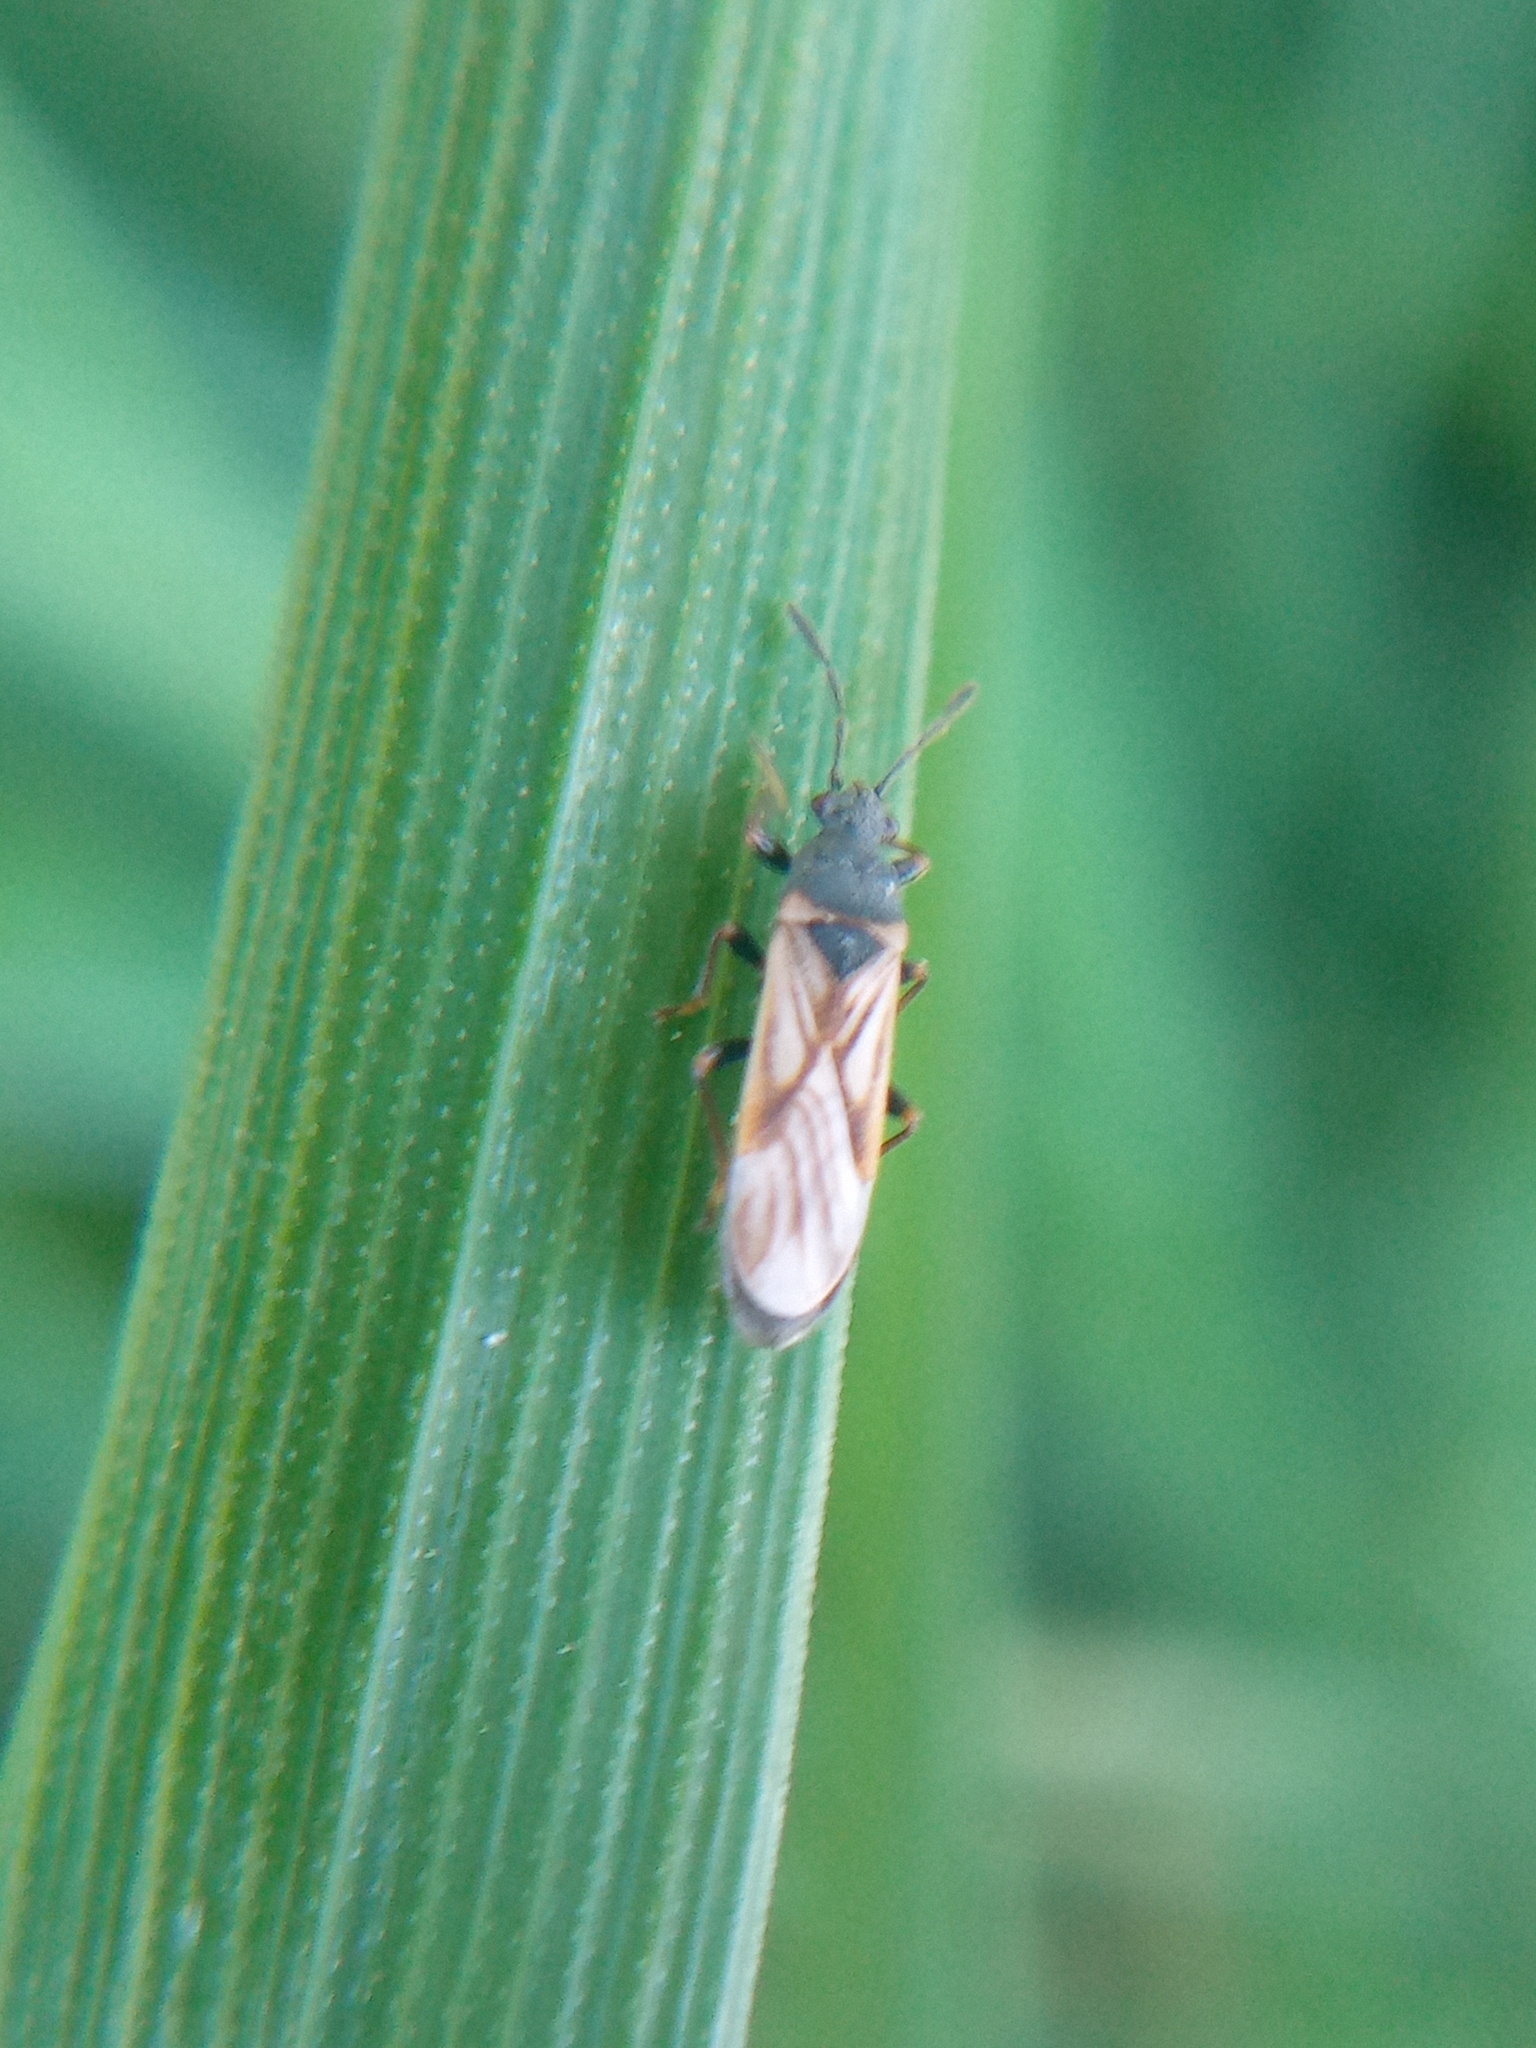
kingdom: Animalia
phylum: Arthropoda
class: Insecta
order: Hemiptera
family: Blissidae
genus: Ischnodemus
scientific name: Ischnodemus sabuleti
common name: European cinchbug
